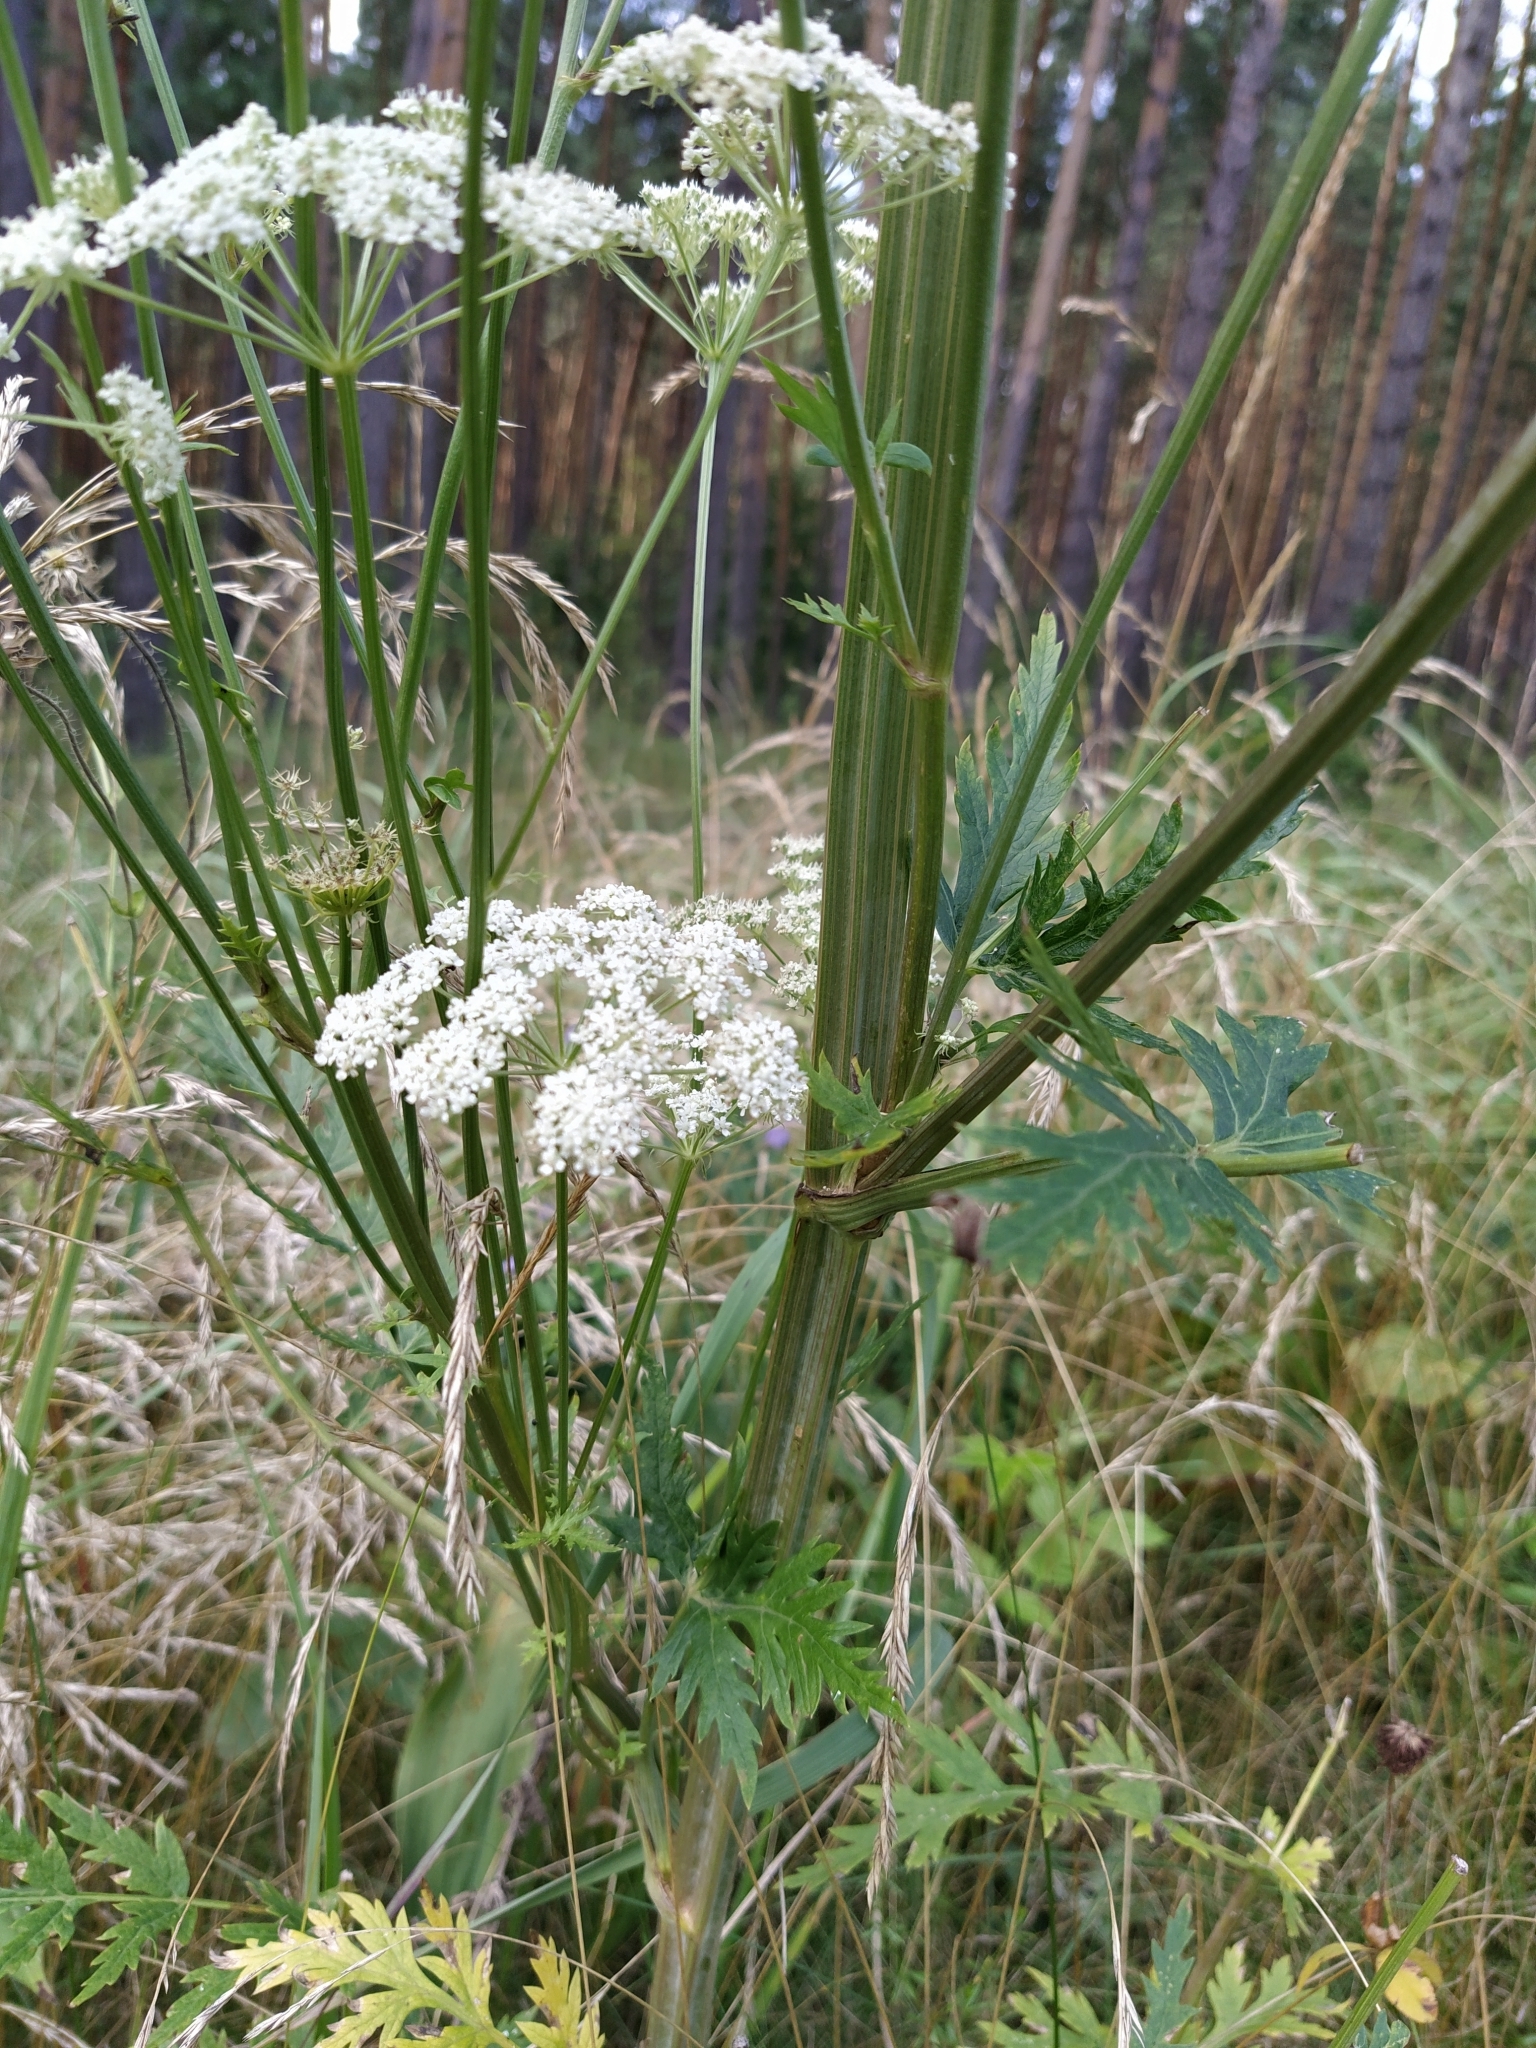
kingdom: Plantae
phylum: Tracheophyta
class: Magnoliopsida
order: Apiales
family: Apiaceae
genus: Seseli
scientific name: Seseli libanotis
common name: Mooncarrot
